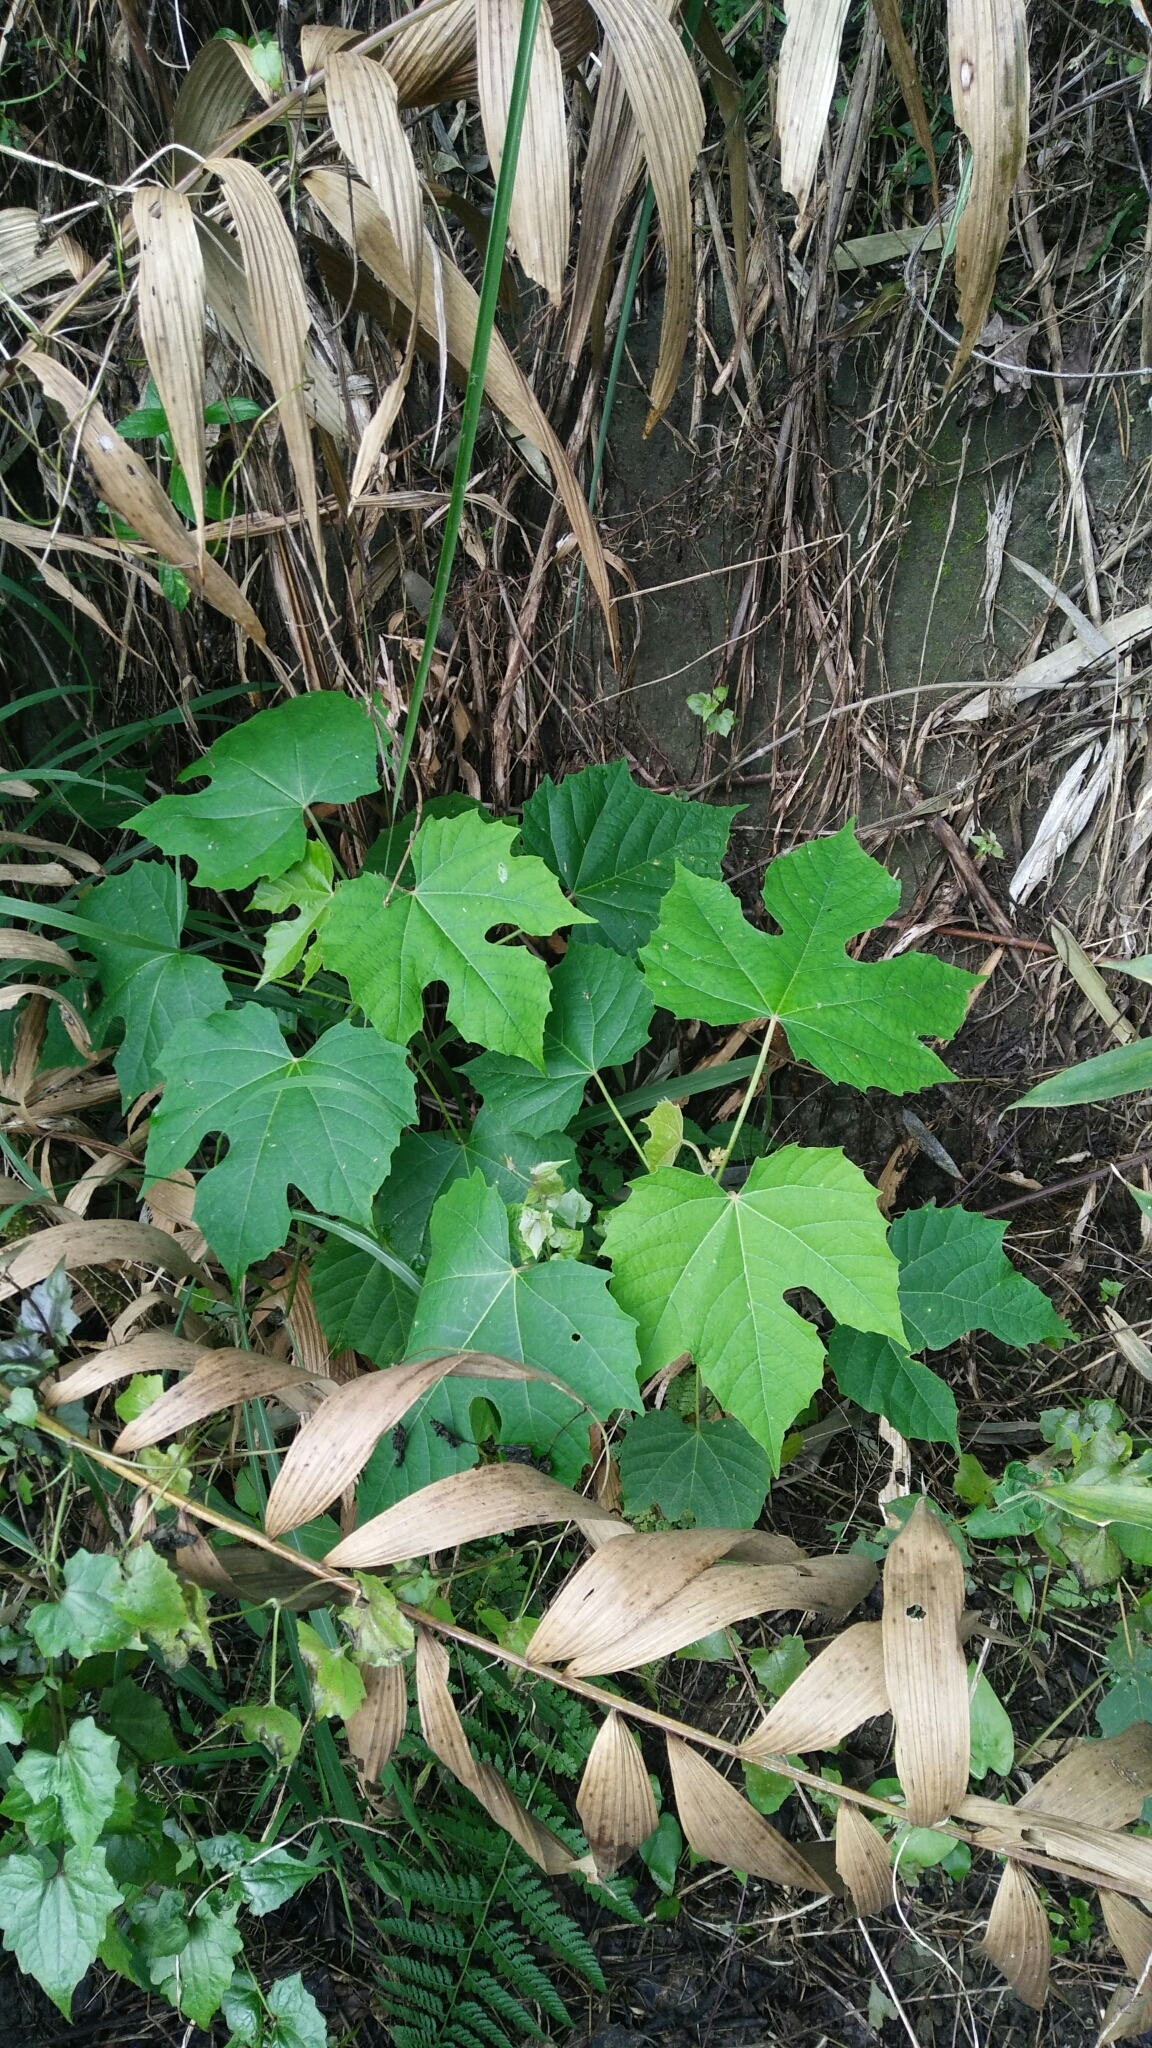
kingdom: Plantae
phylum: Tracheophyta
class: Magnoliopsida
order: Malpighiales
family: Euphorbiaceae
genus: Melanolepis
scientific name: Melanolepis multiglandulosa
